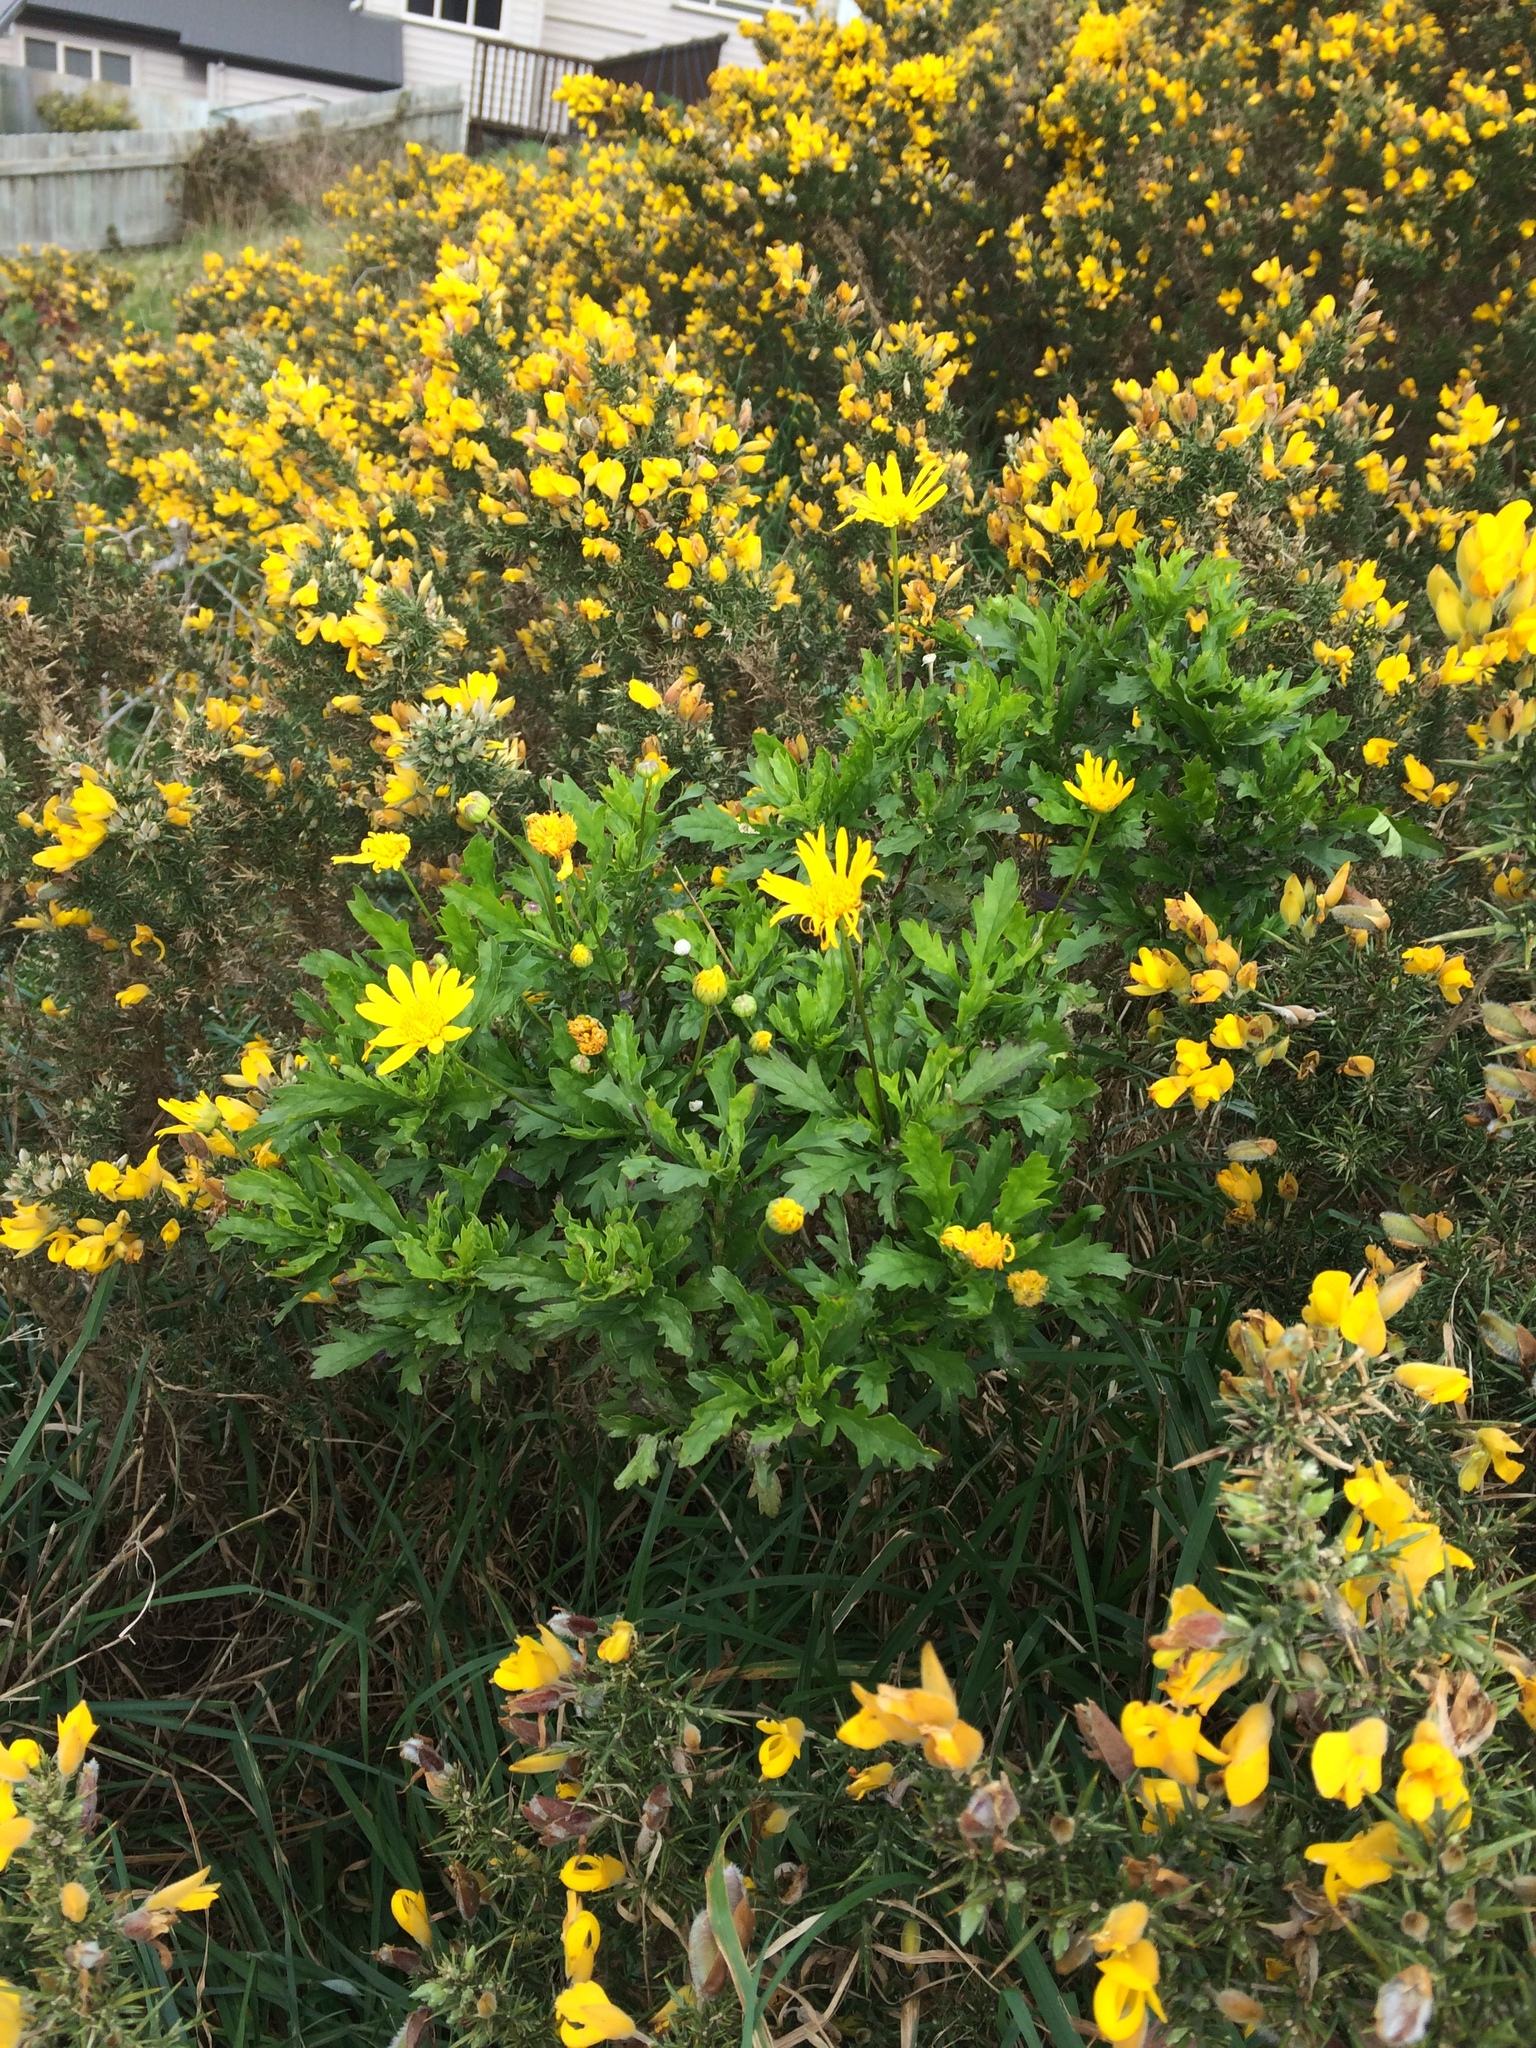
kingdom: Plantae
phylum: Tracheophyta
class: Magnoliopsida
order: Asterales
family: Asteraceae
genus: Euryops
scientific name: Euryops chrysanthemoides
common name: Bull's eye
